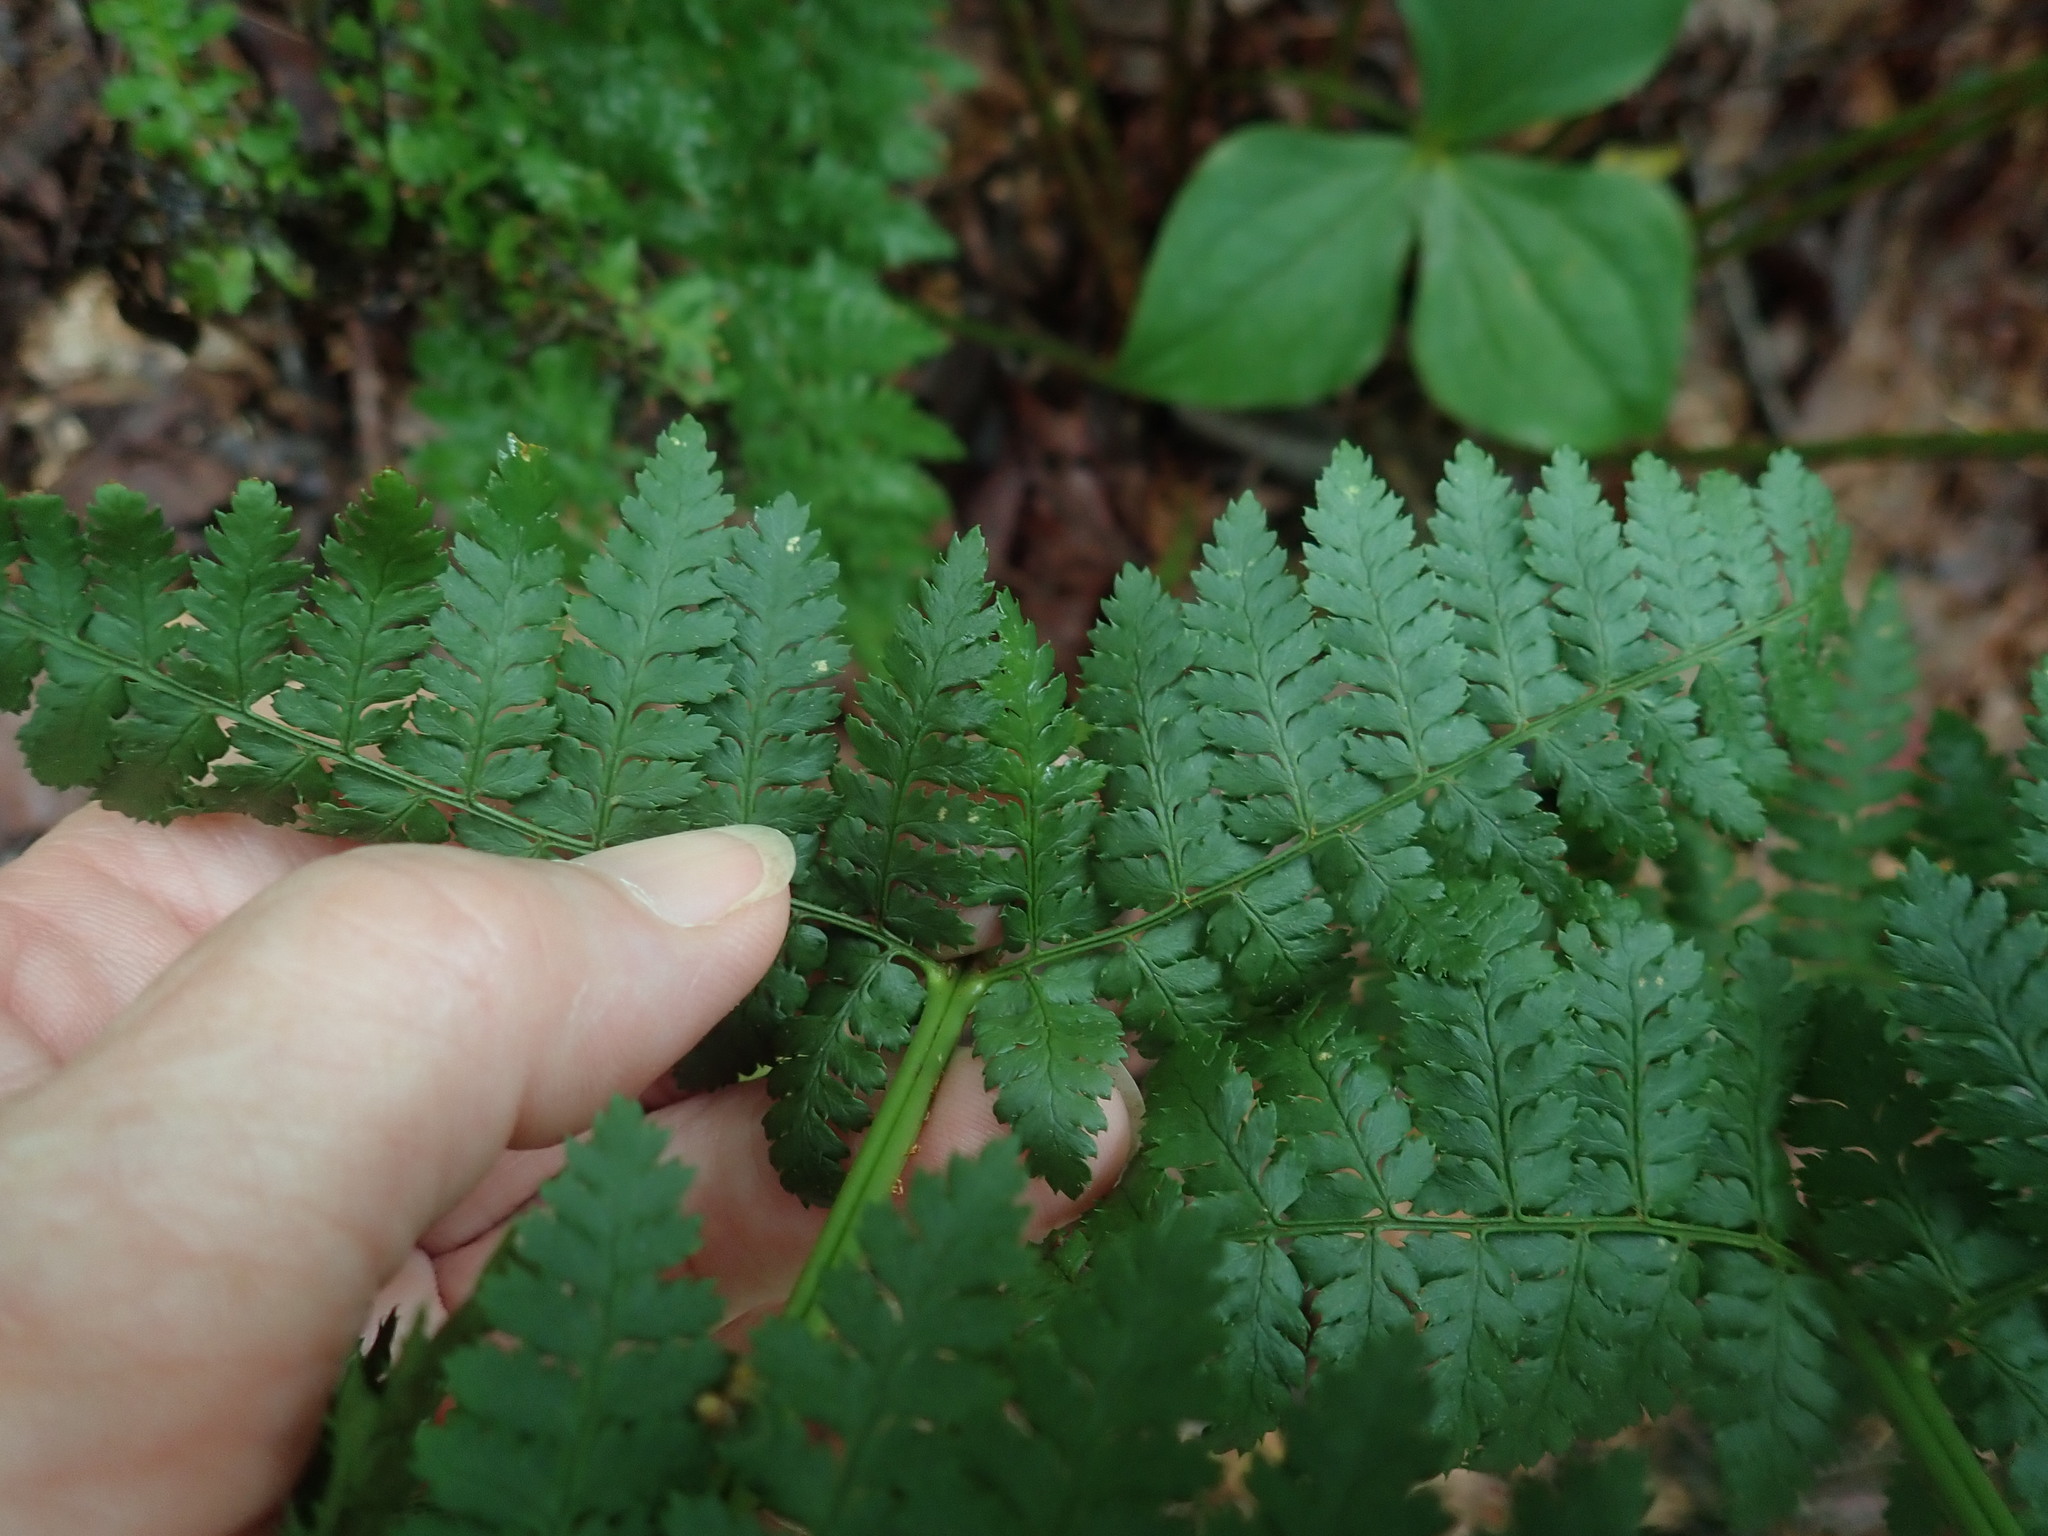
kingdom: Plantae
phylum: Tracheophyta
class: Polypodiopsida
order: Polypodiales
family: Dryopteridaceae
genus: Dryopteris
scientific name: Dryopteris intermedia
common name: Evergreen wood fern
